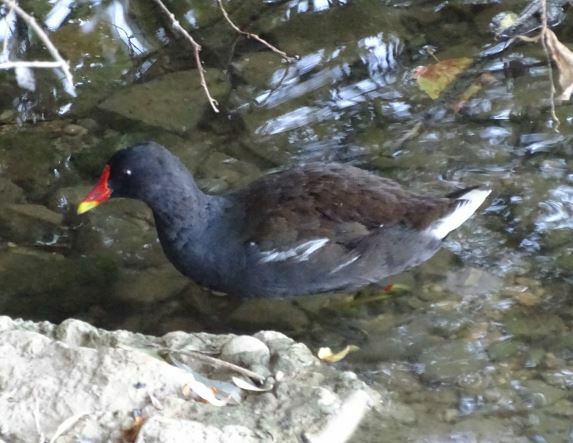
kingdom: Animalia
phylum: Chordata
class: Aves
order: Gruiformes
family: Rallidae
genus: Gallinula
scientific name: Gallinula chloropus
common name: Common moorhen
